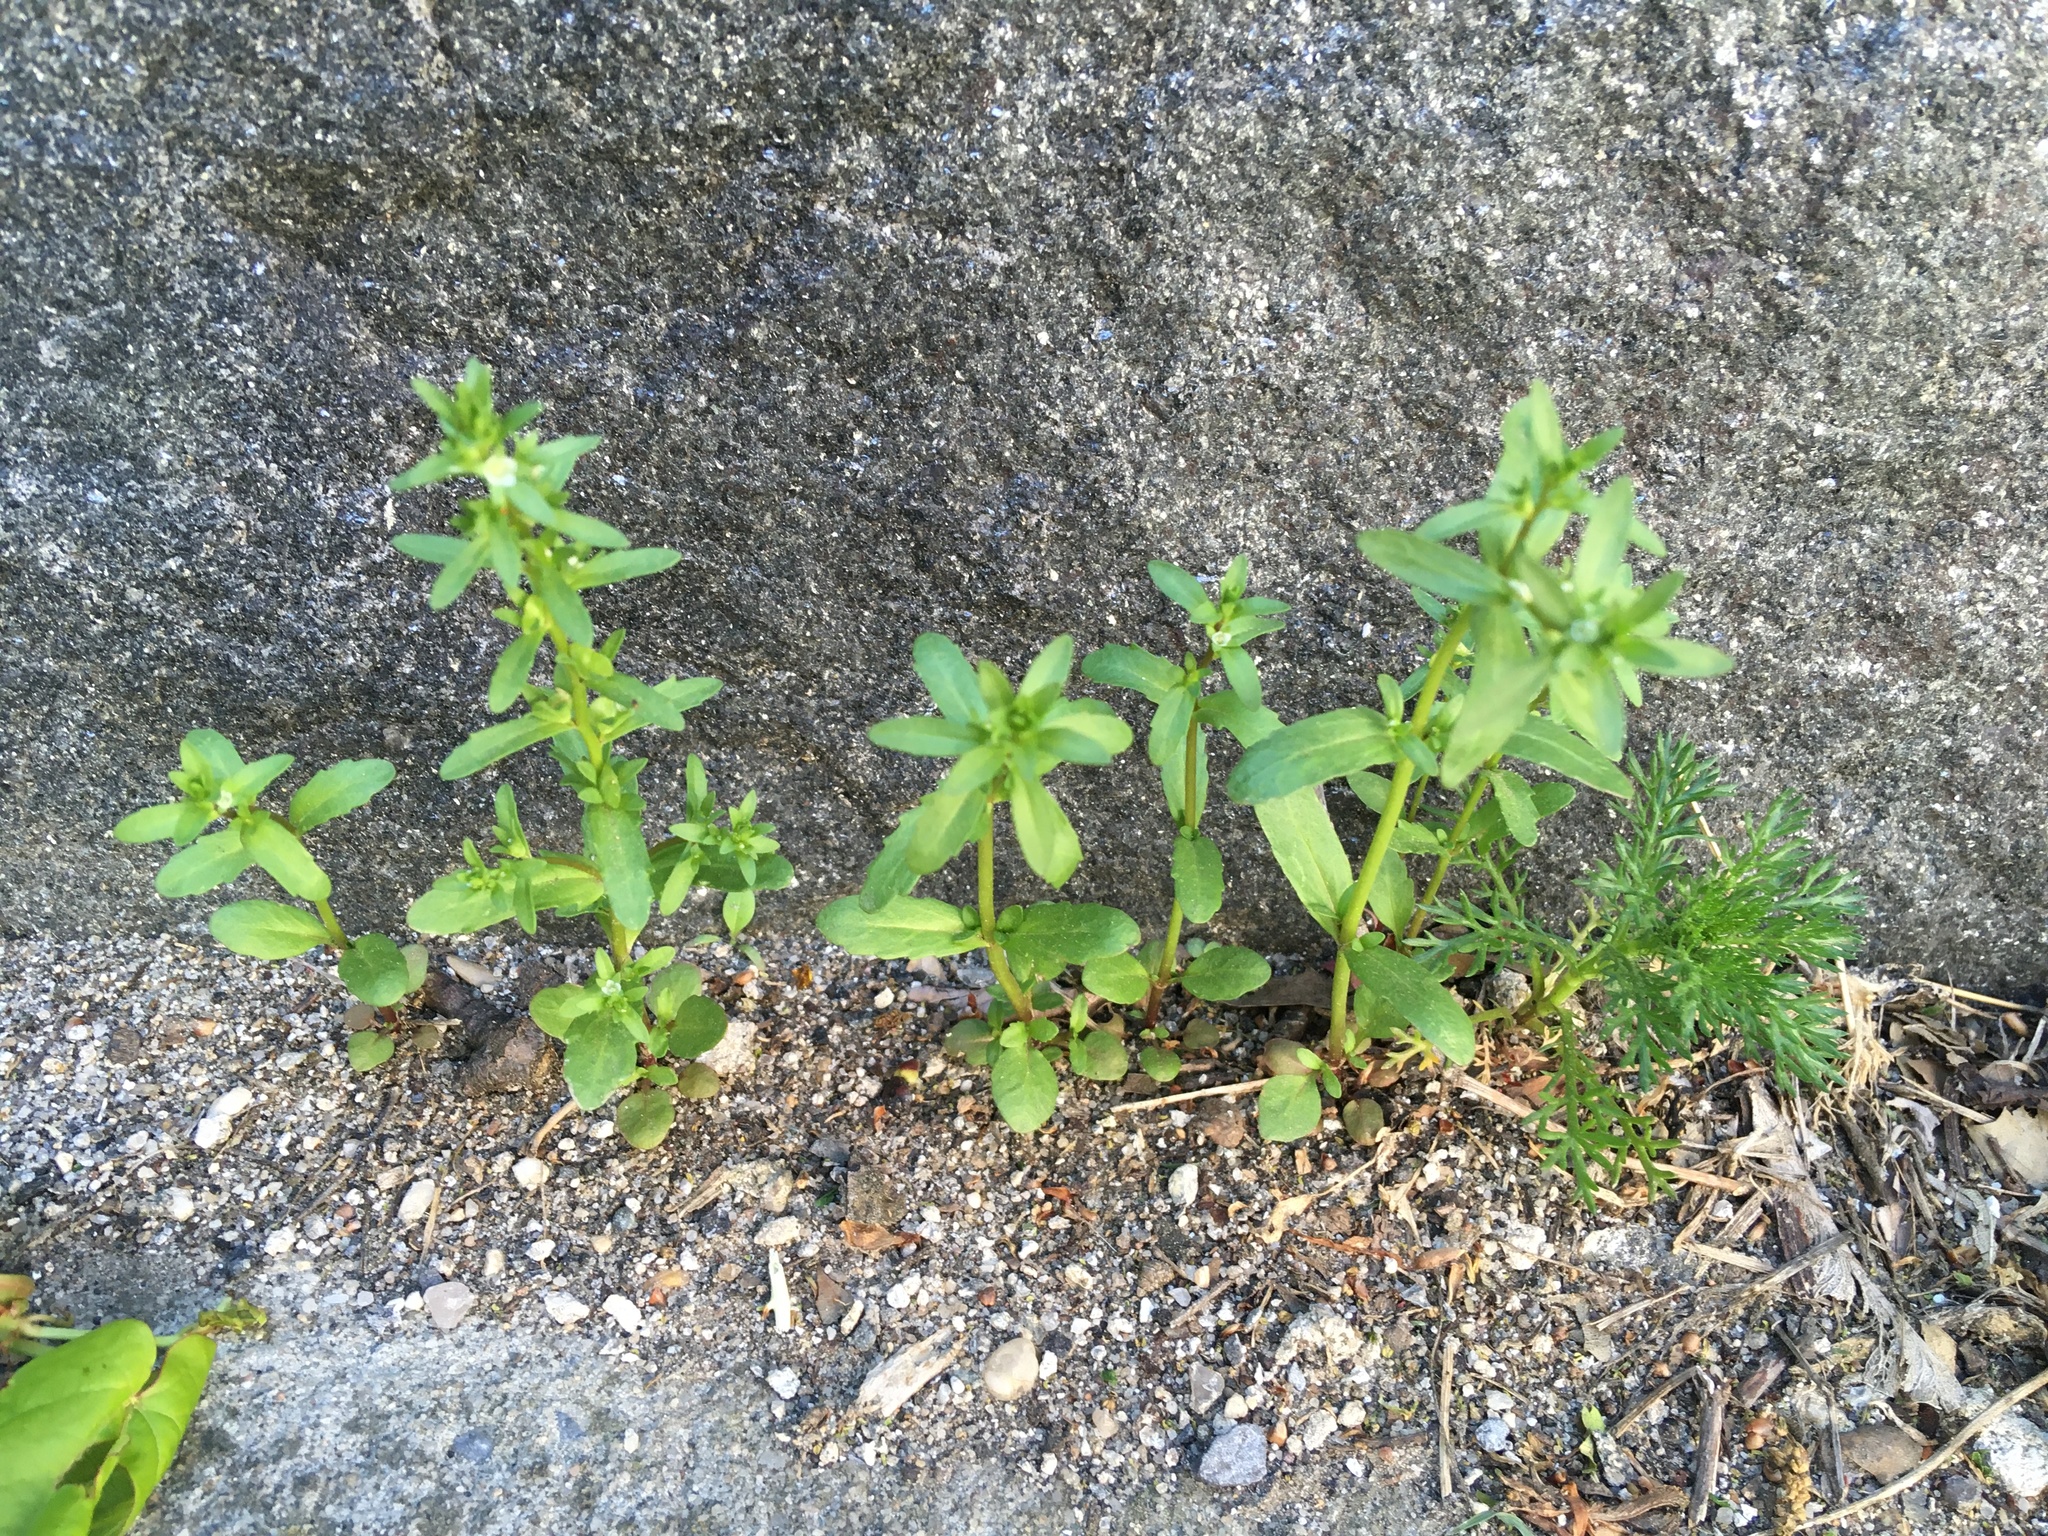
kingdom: Plantae
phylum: Tracheophyta
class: Magnoliopsida
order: Lamiales
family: Plantaginaceae
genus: Veronica
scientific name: Veronica peregrina
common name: Neckweed
